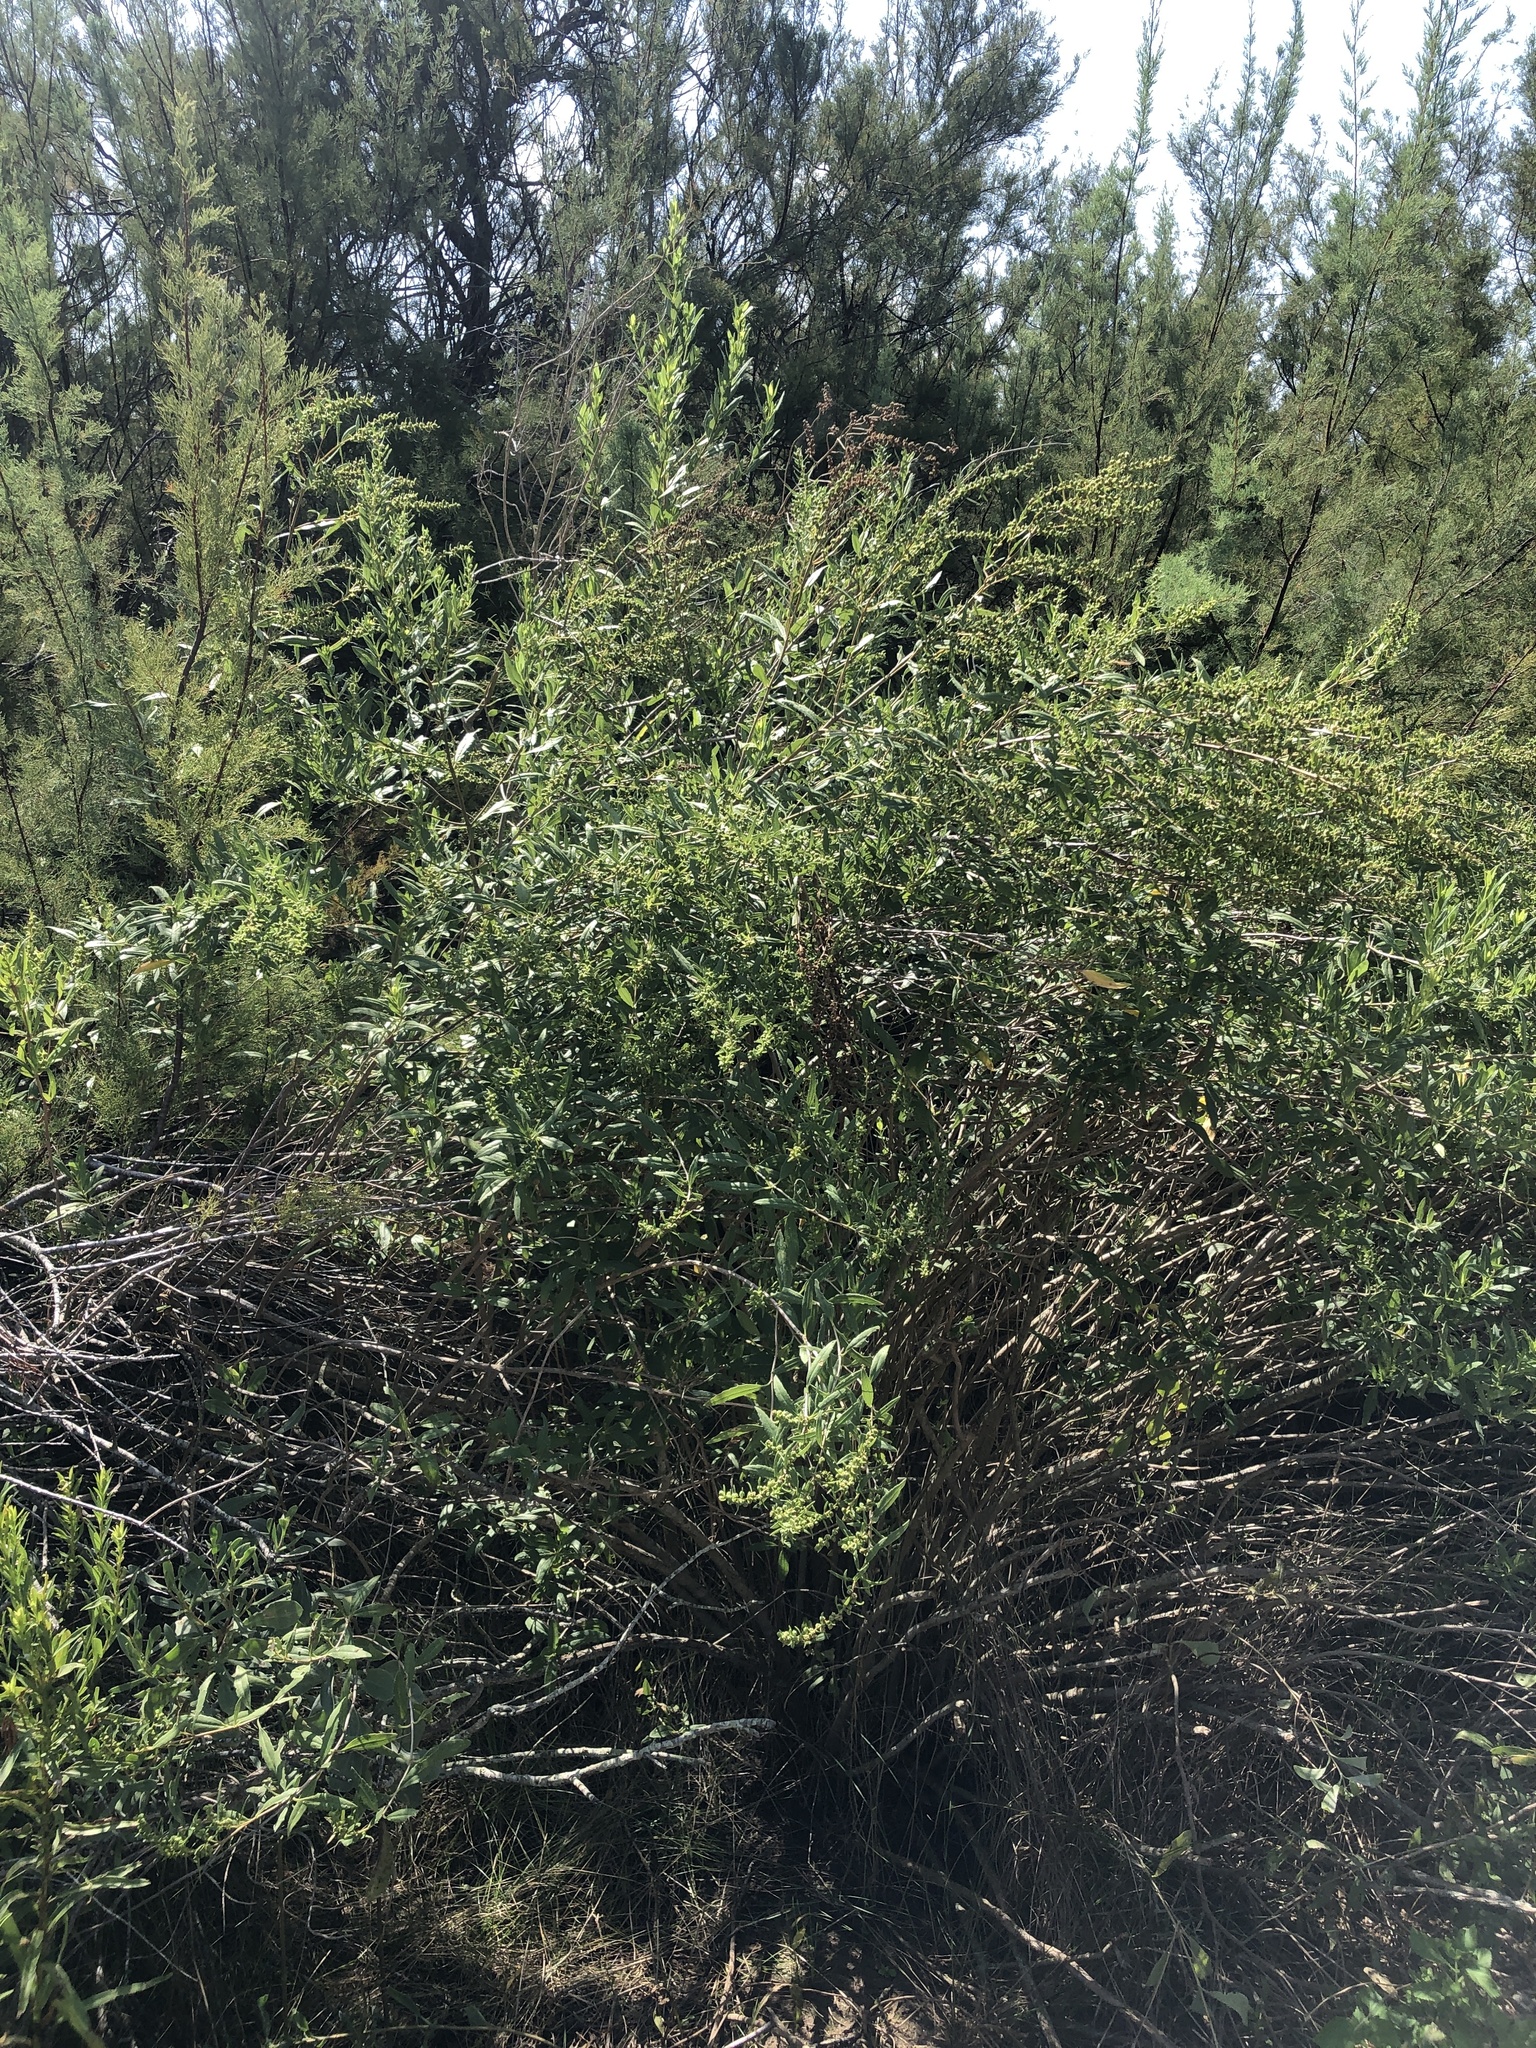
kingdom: Plantae
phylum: Tracheophyta
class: Magnoliopsida
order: Asterales
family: Asteraceae
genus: Iva
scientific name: Iva frutescens
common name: Big-leaved marsh-elder
